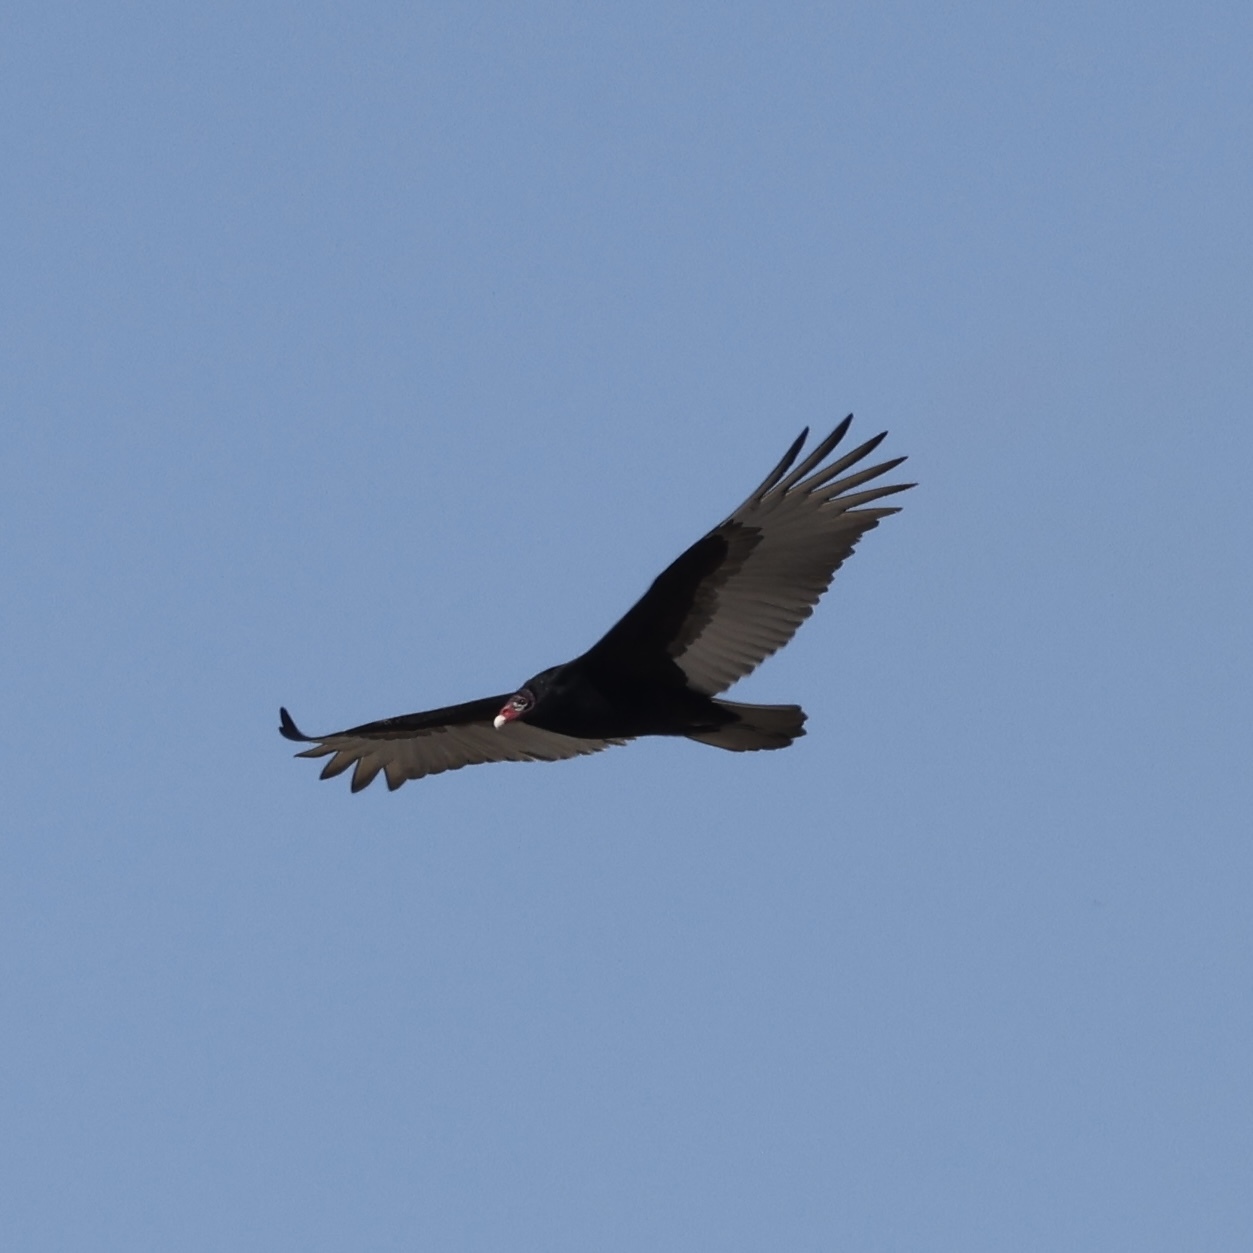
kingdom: Animalia
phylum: Chordata
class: Aves
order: Accipitriformes
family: Cathartidae
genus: Cathartes
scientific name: Cathartes aura
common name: Turkey vulture
